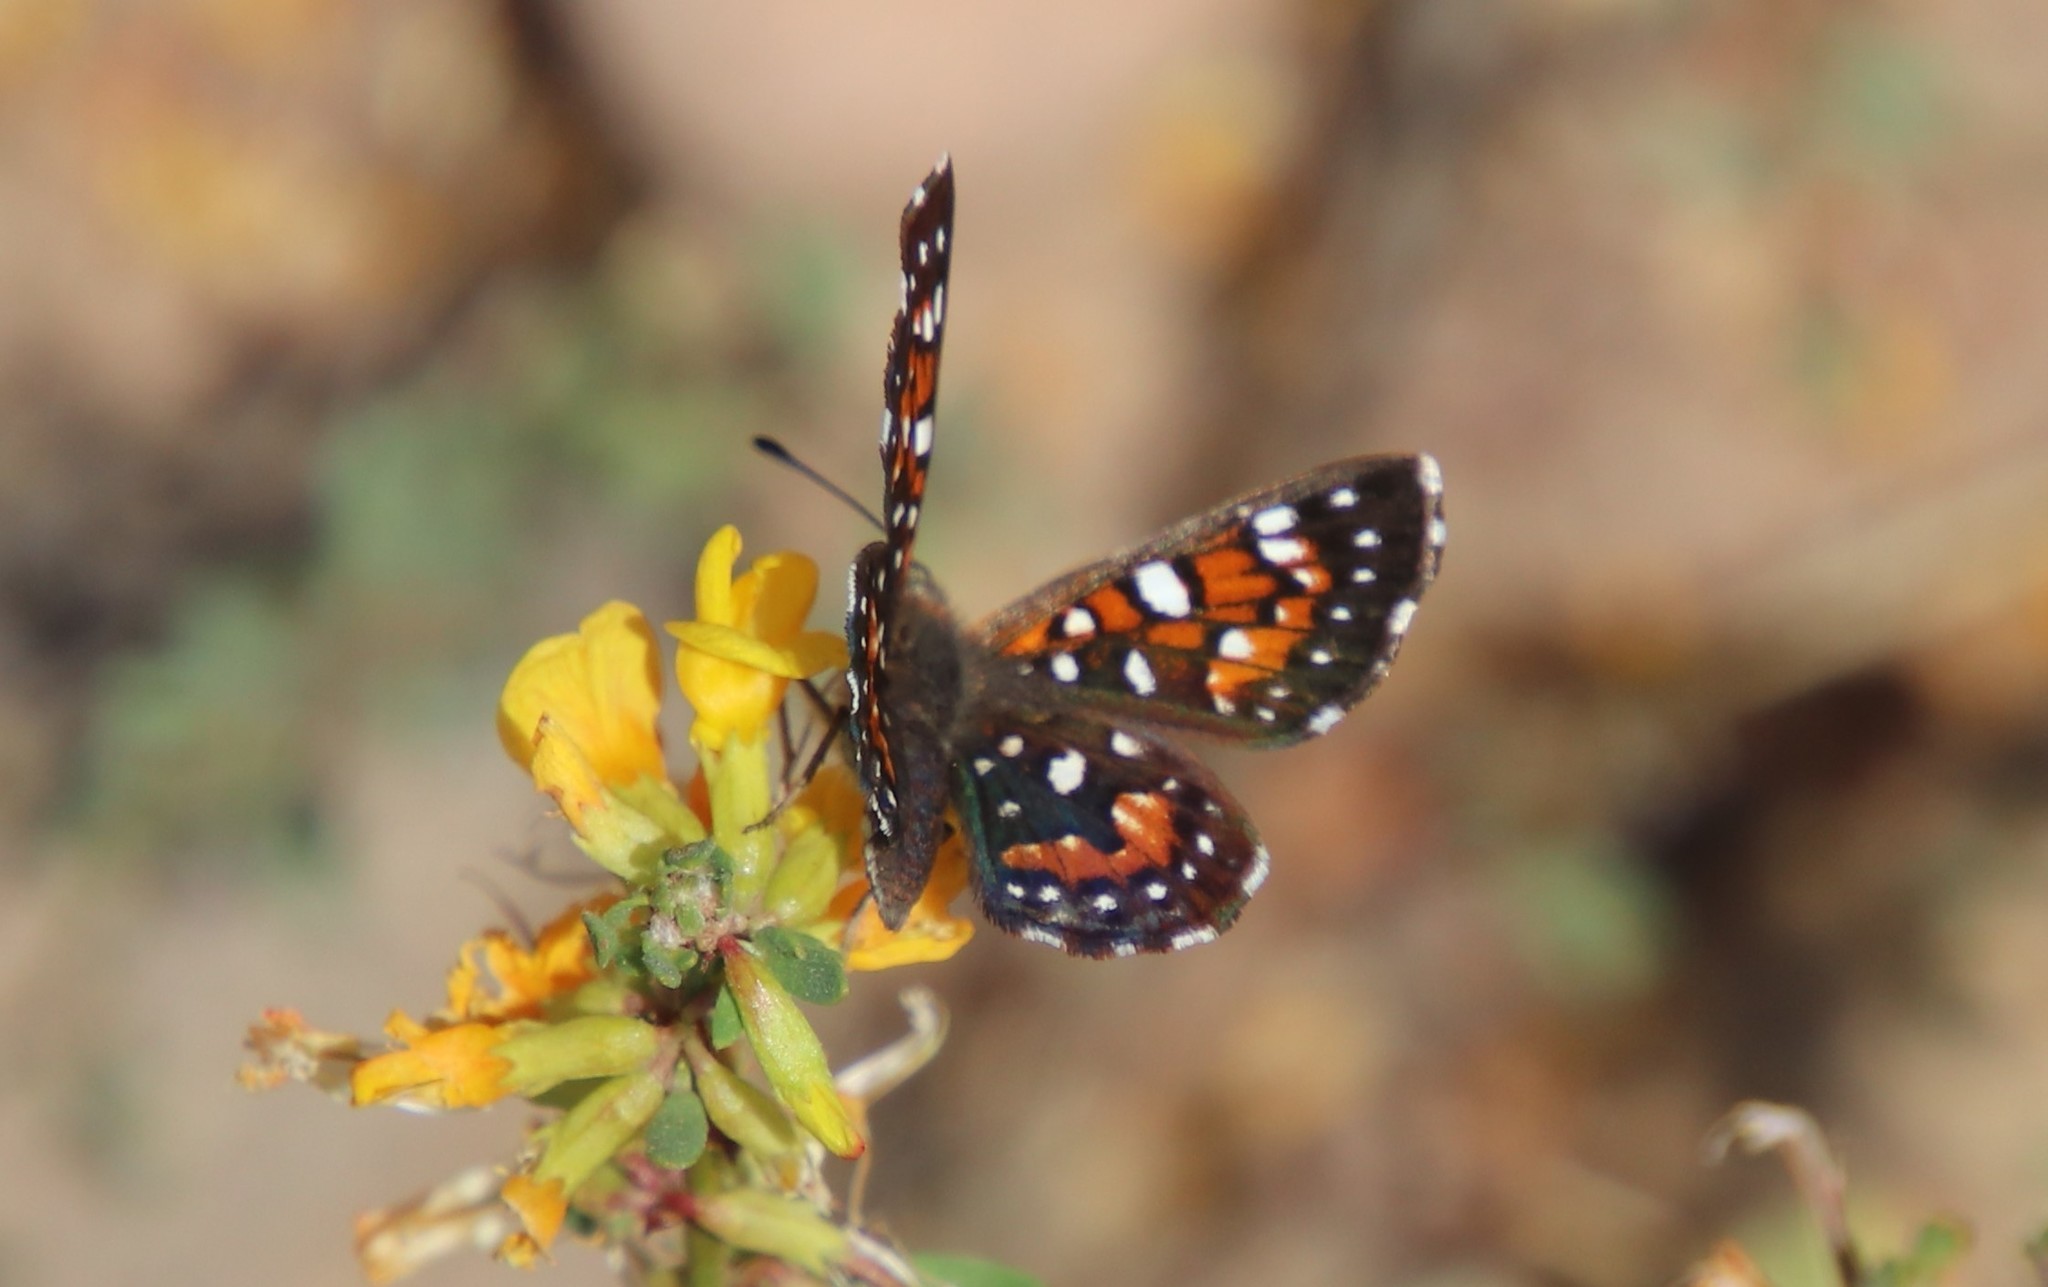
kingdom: Animalia
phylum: Arthropoda
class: Insecta
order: Lepidoptera
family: Riodinidae
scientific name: Riodinidae
